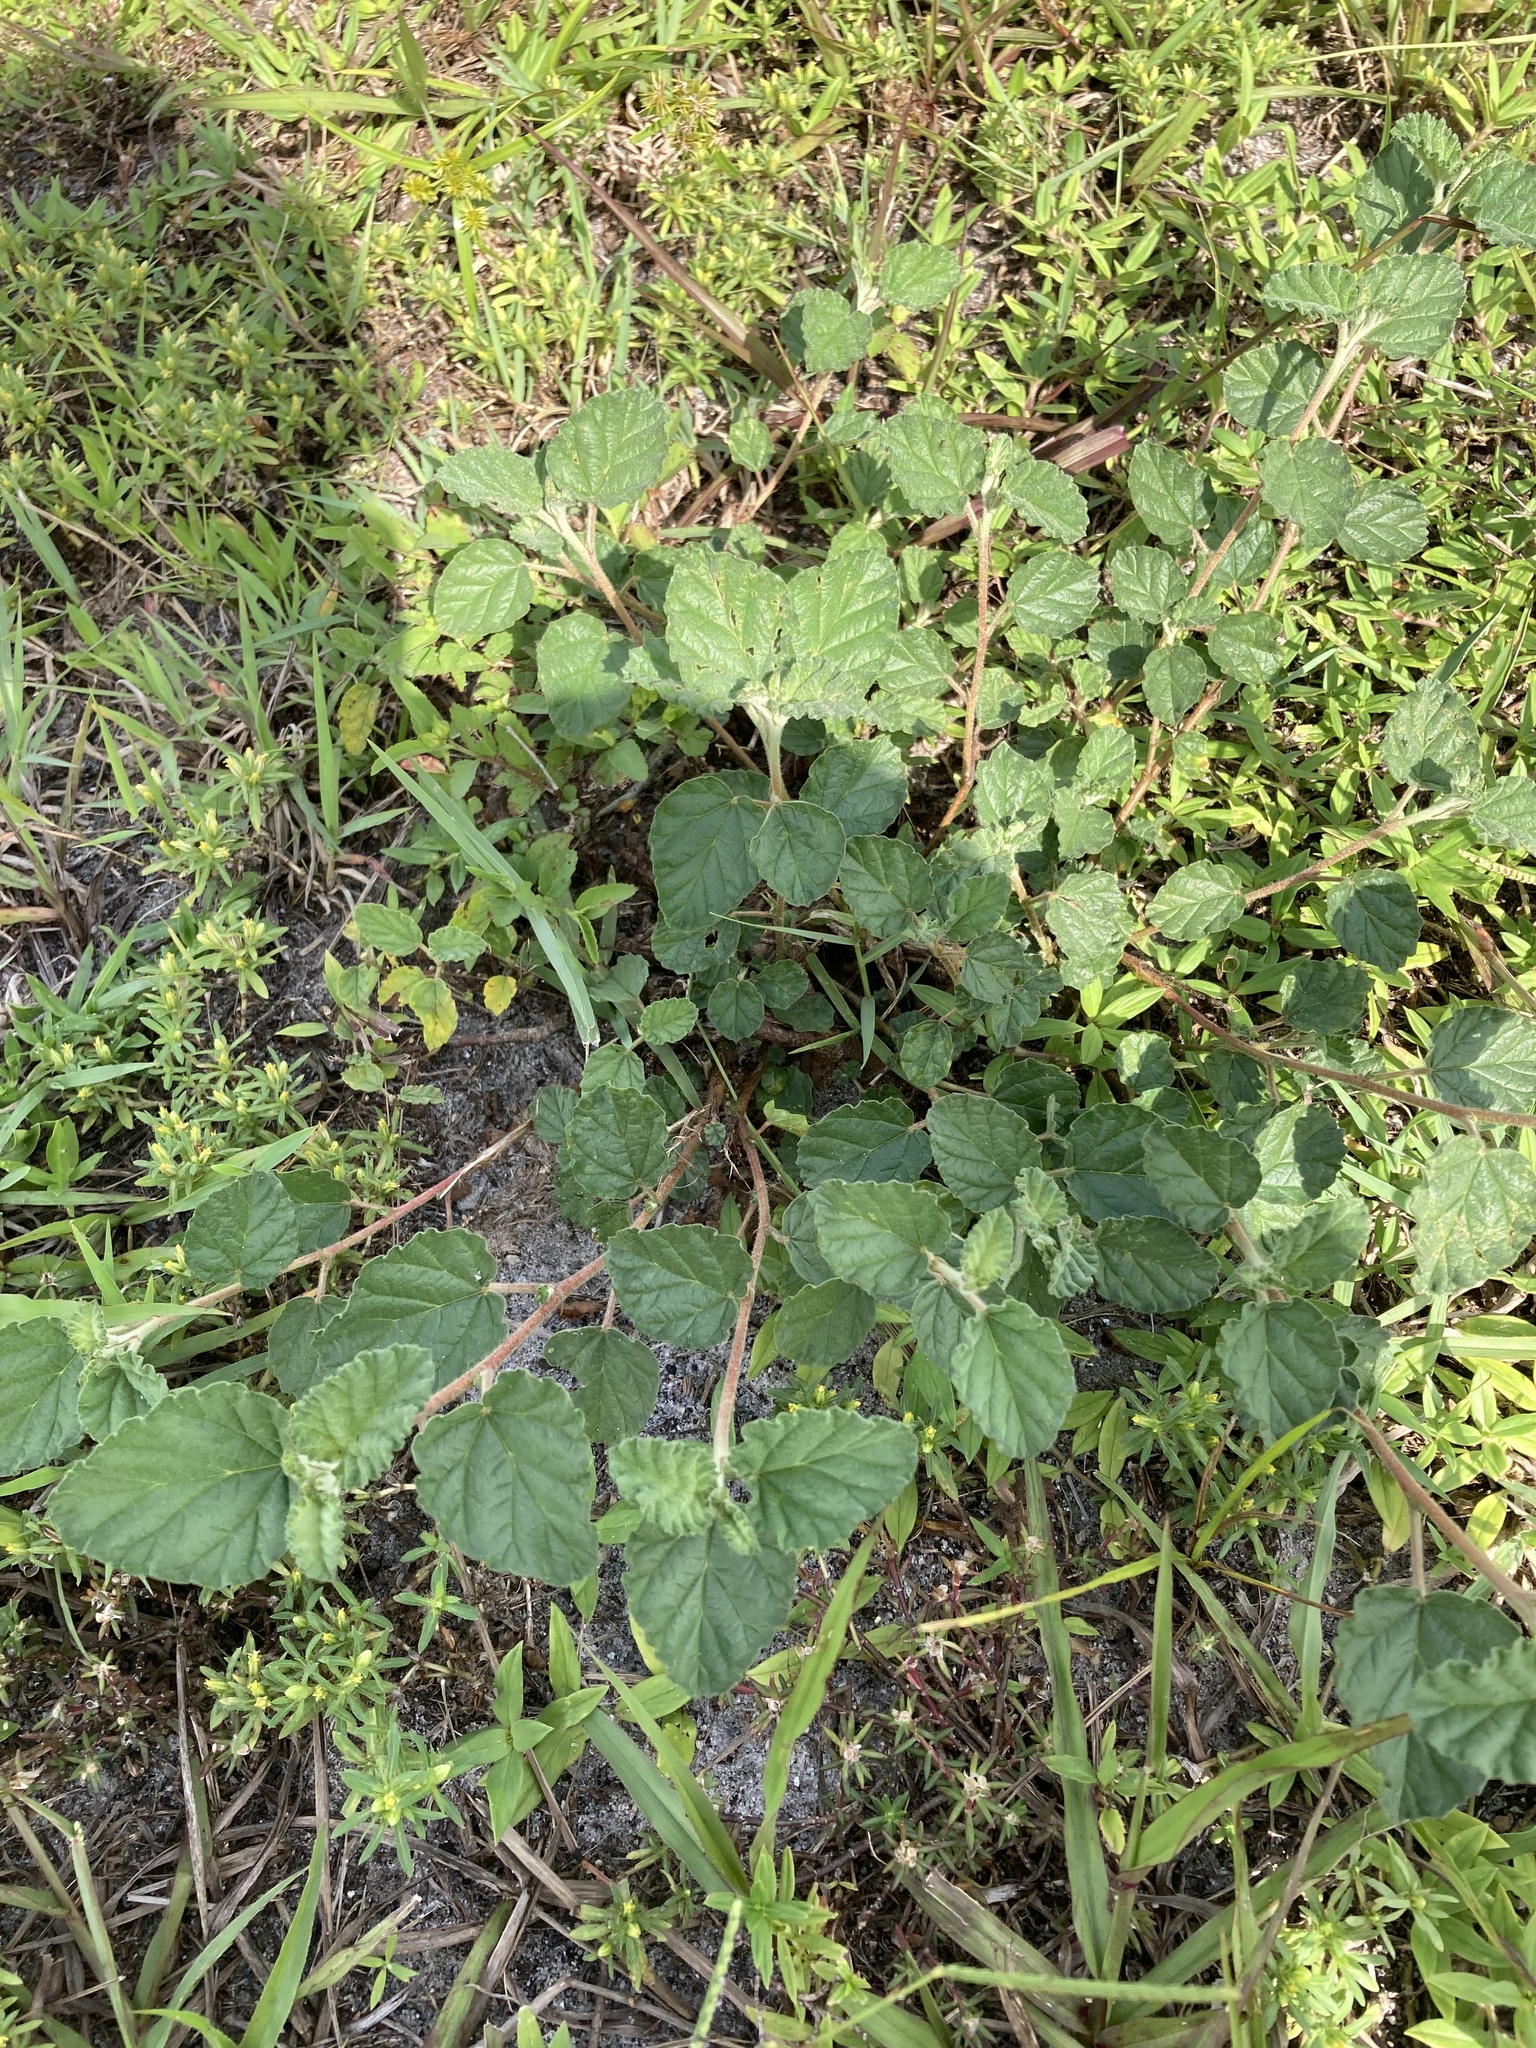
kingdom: Plantae
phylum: Tracheophyta
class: Magnoliopsida
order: Malvales
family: Malvaceae
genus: Waltheria
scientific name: Waltheria indica
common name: Leather-coat
